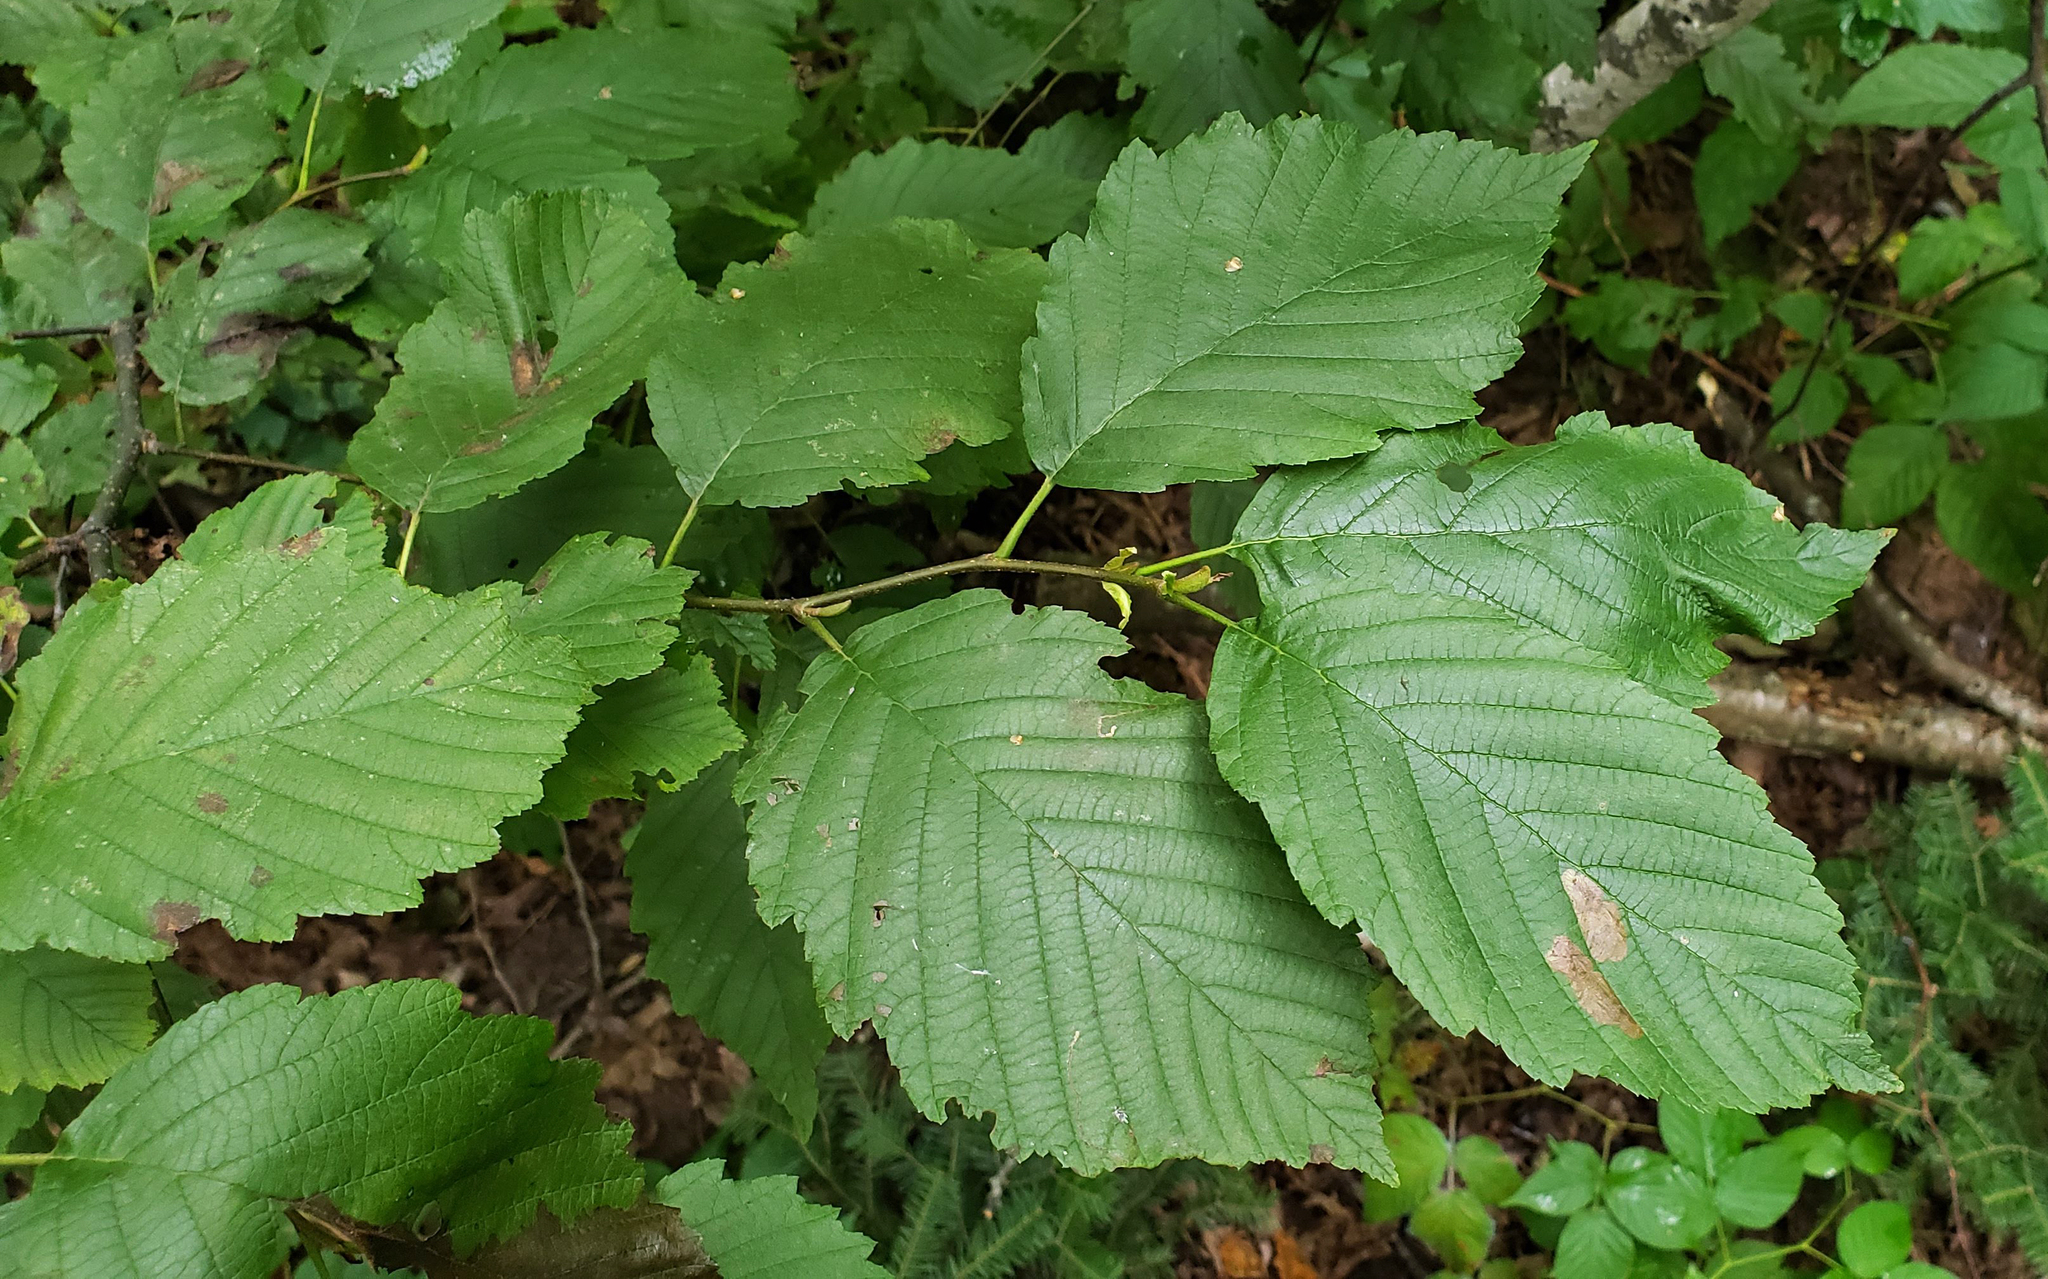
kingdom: Plantae
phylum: Tracheophyta
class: Magnoliopsida
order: Fagales
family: Betulaceae
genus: Alnus
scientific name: Alnus incana
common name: Grey alder
